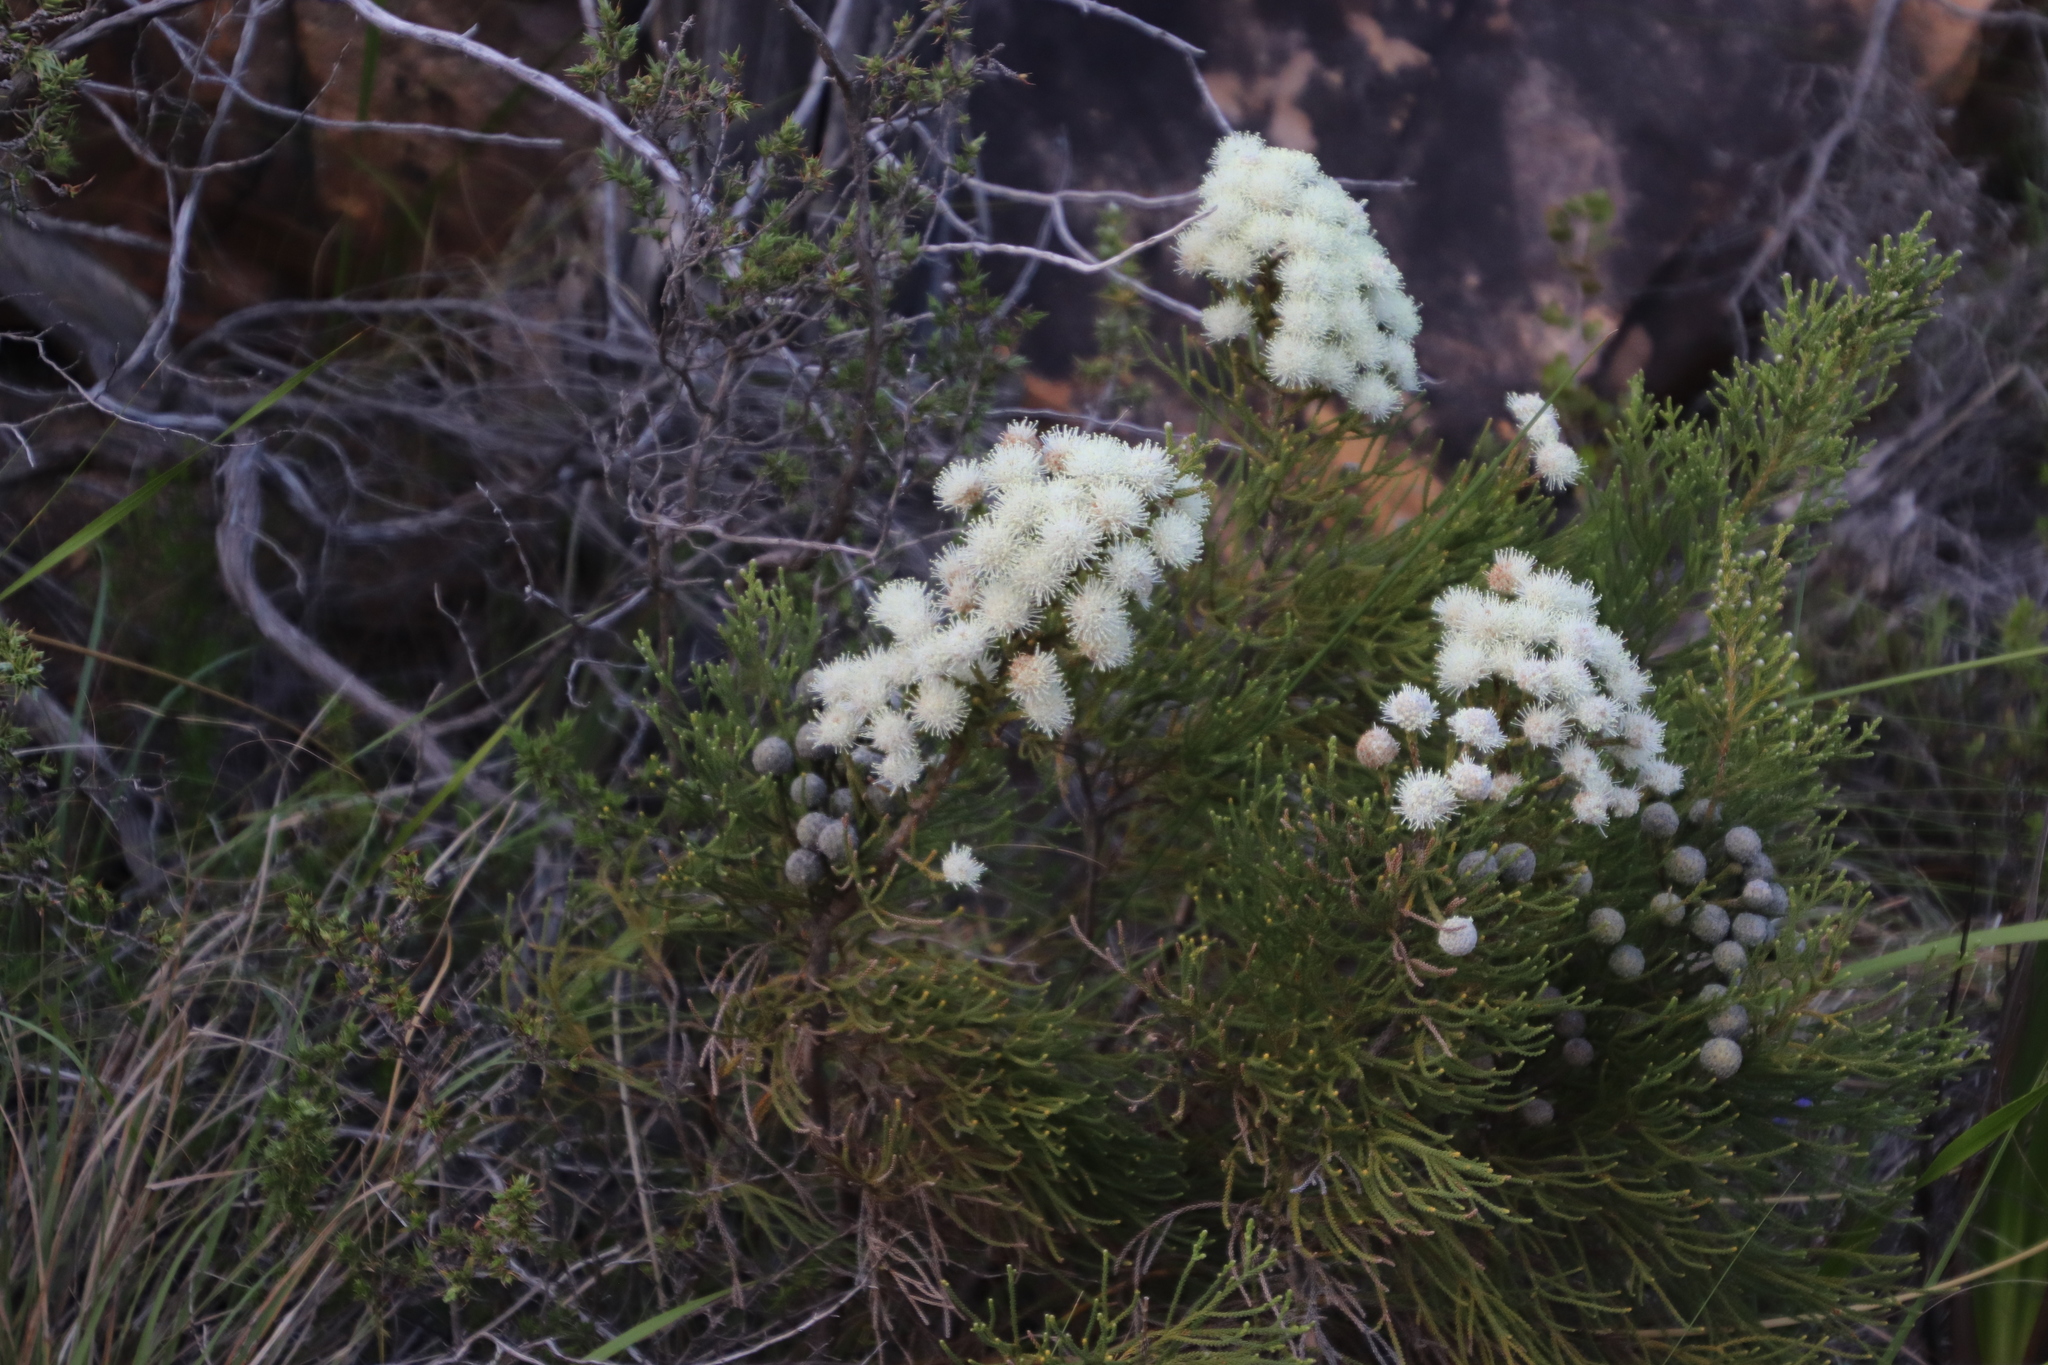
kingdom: Plantae
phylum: Tracheophyta
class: Magnoliopsida
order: Bruniales
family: Bruniaceae
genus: Brunia
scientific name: Brunia noduliflora
